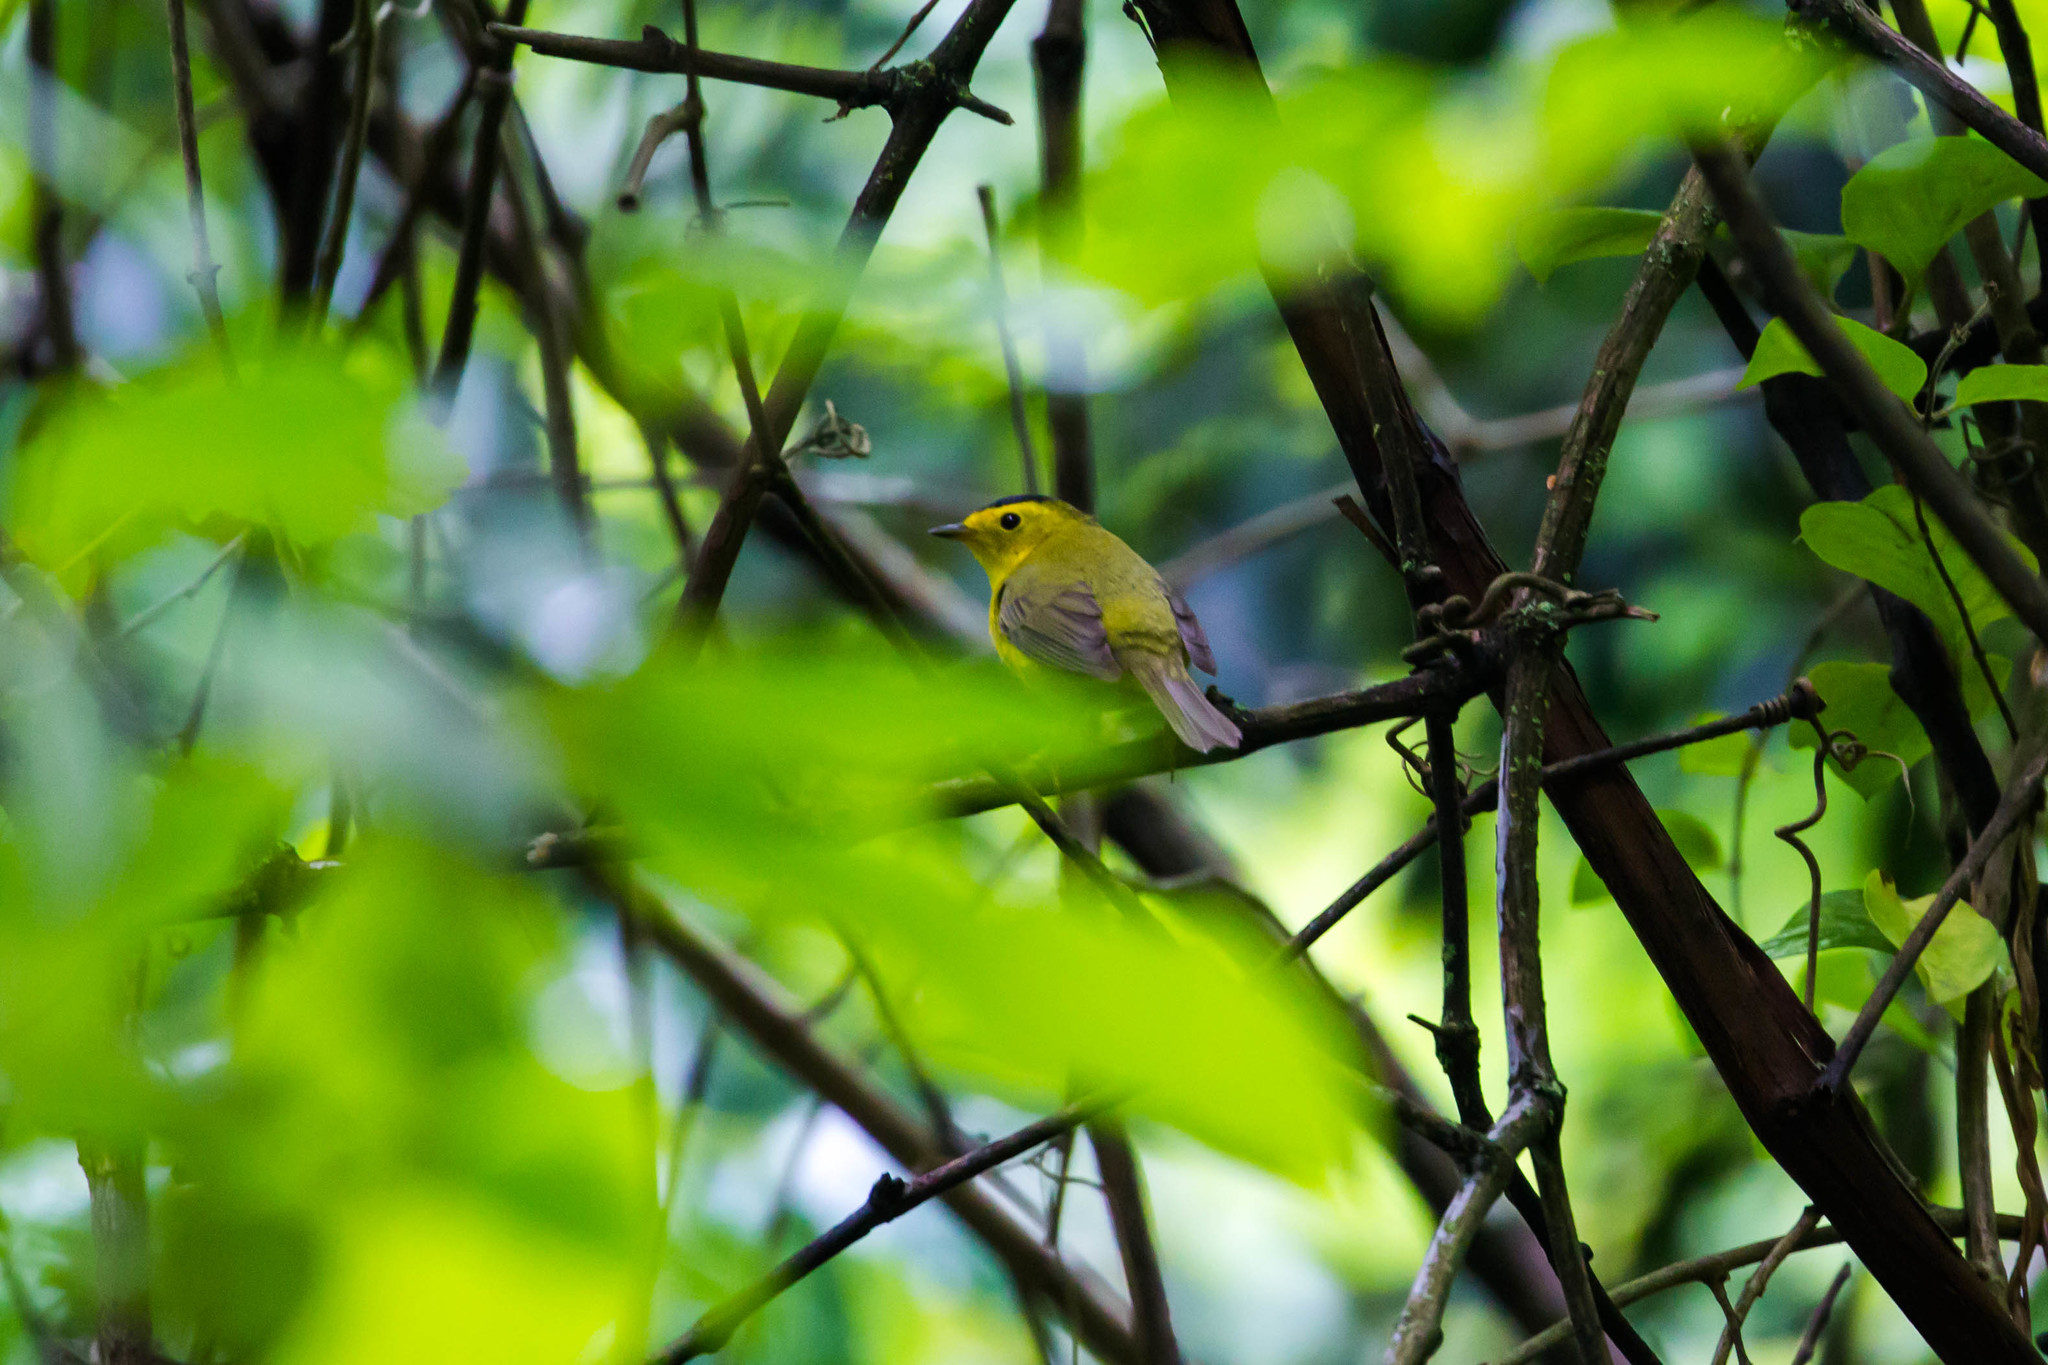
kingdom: Animalia
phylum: Chordata
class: Aves
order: Passeriformes
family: Parulidae
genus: Cardellina
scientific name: Cardellina pusilla
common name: Wilson's warbler
